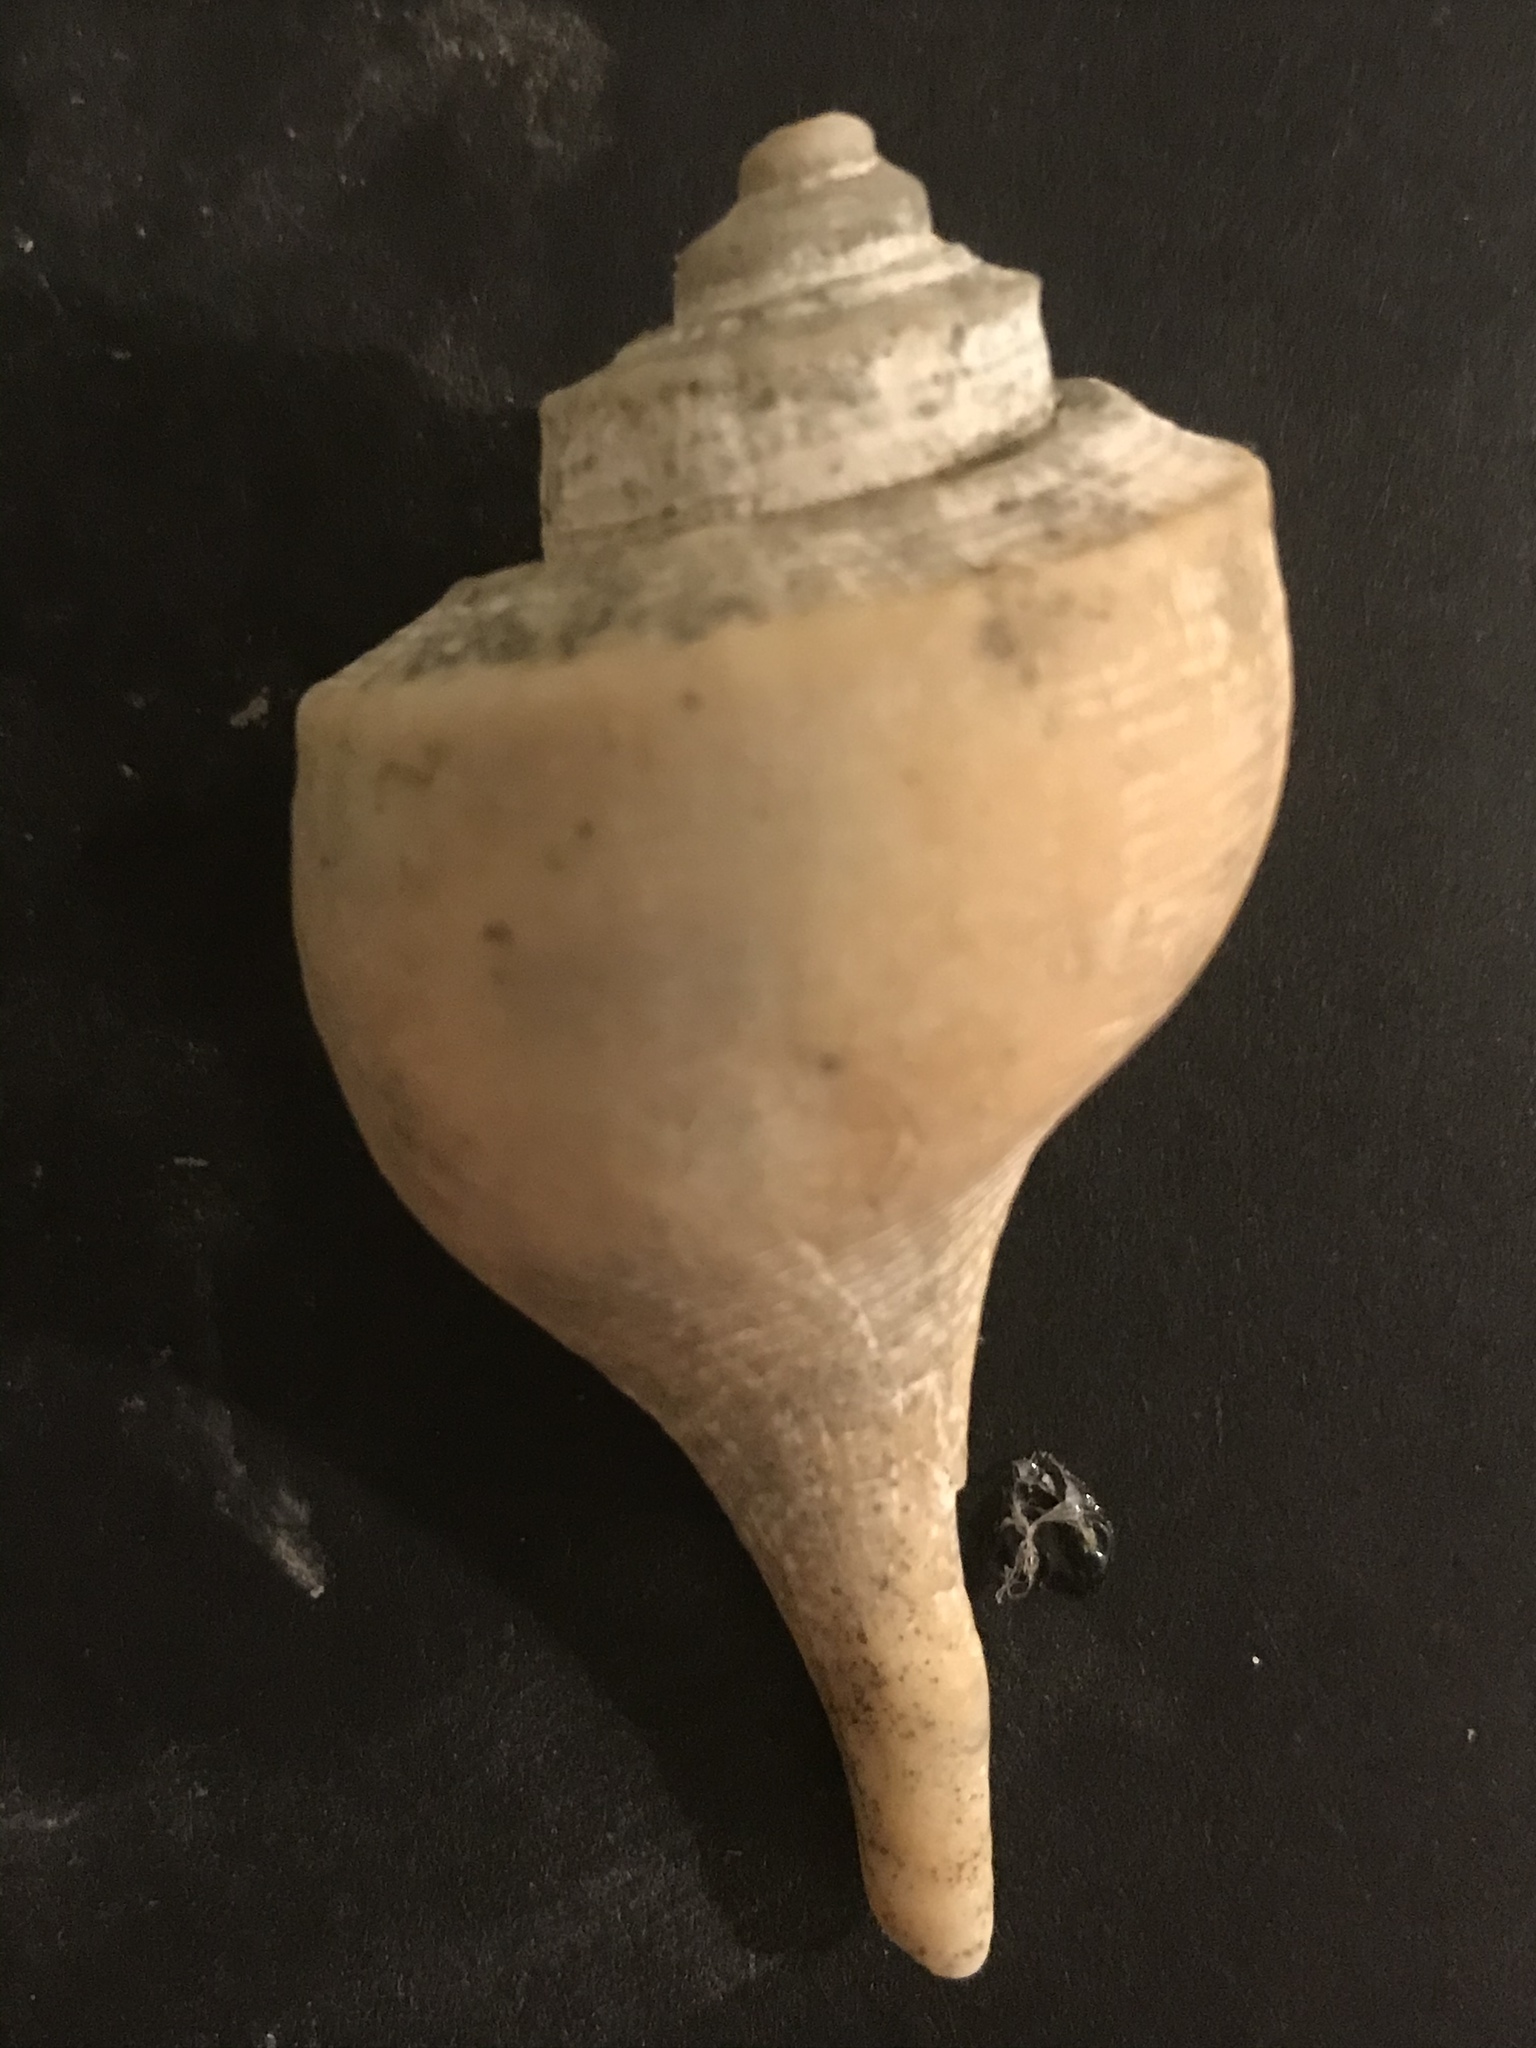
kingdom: Animalia
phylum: Mollusca
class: Gastropoda
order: Neogastropoda
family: Busyconidae
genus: Busycotypus
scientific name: Busycotypus canaliculatus
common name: Channeled whelk
